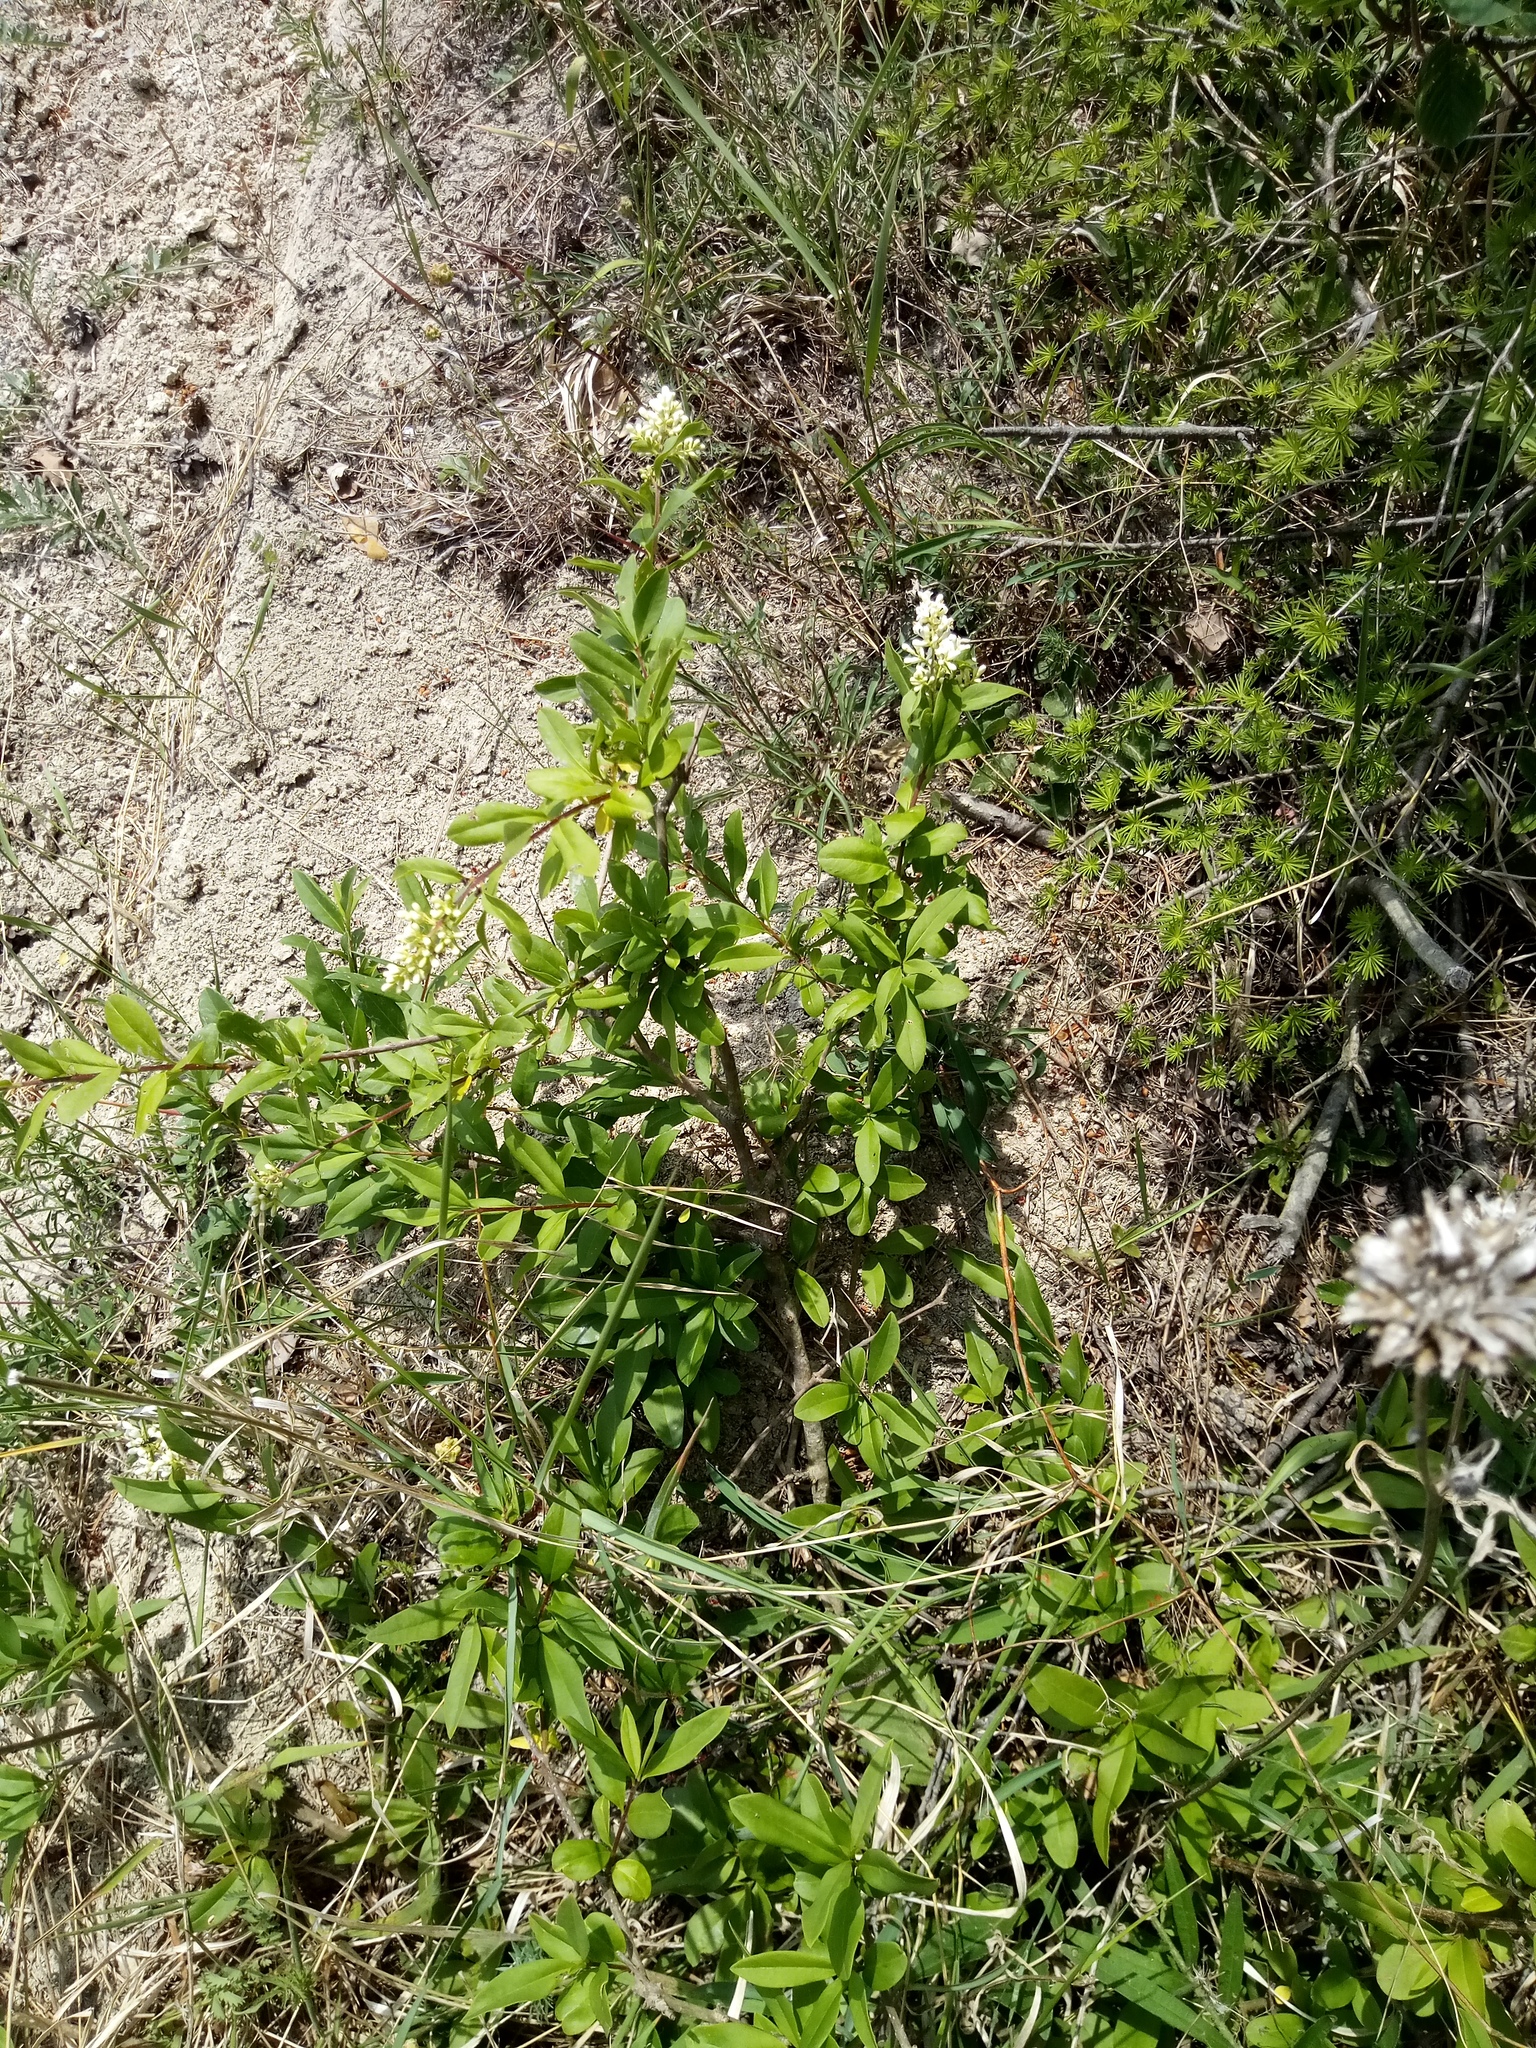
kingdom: Plantae
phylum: Tracheophyta
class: Magnoliopsida
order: Lamiales
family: Oleaceae
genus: Ligustrum
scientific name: Ligustrum vulgare
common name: Wild privet
